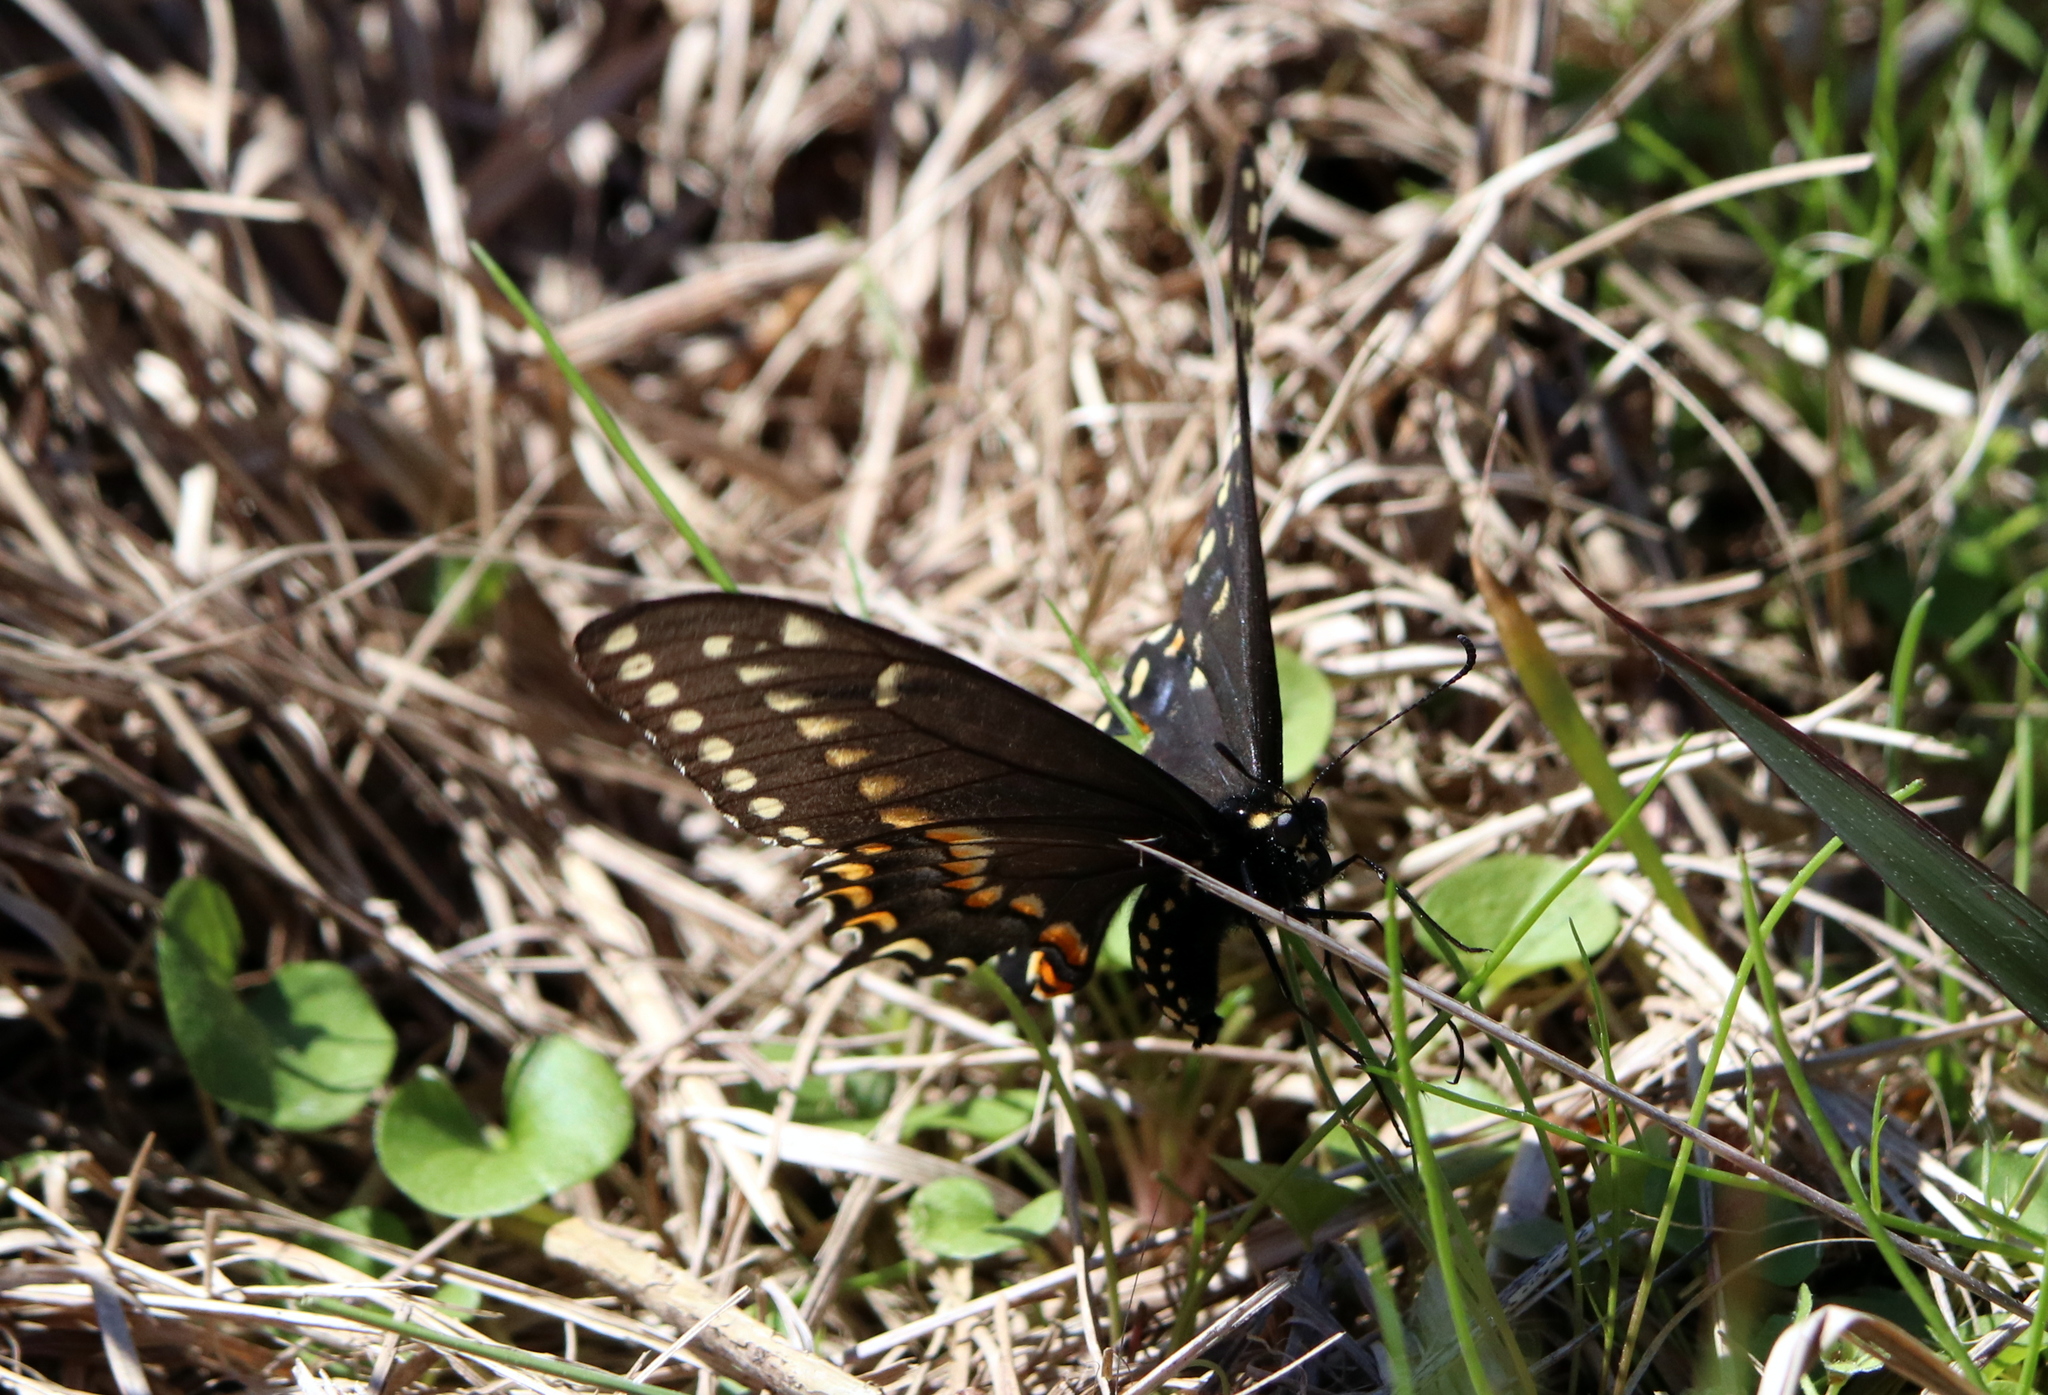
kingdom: Animalia
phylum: Arthropoda
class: Insecta
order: Lepidoptera
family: Papilionidae
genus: Papilio
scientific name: Papilio polyxenes
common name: Black swallowtail
